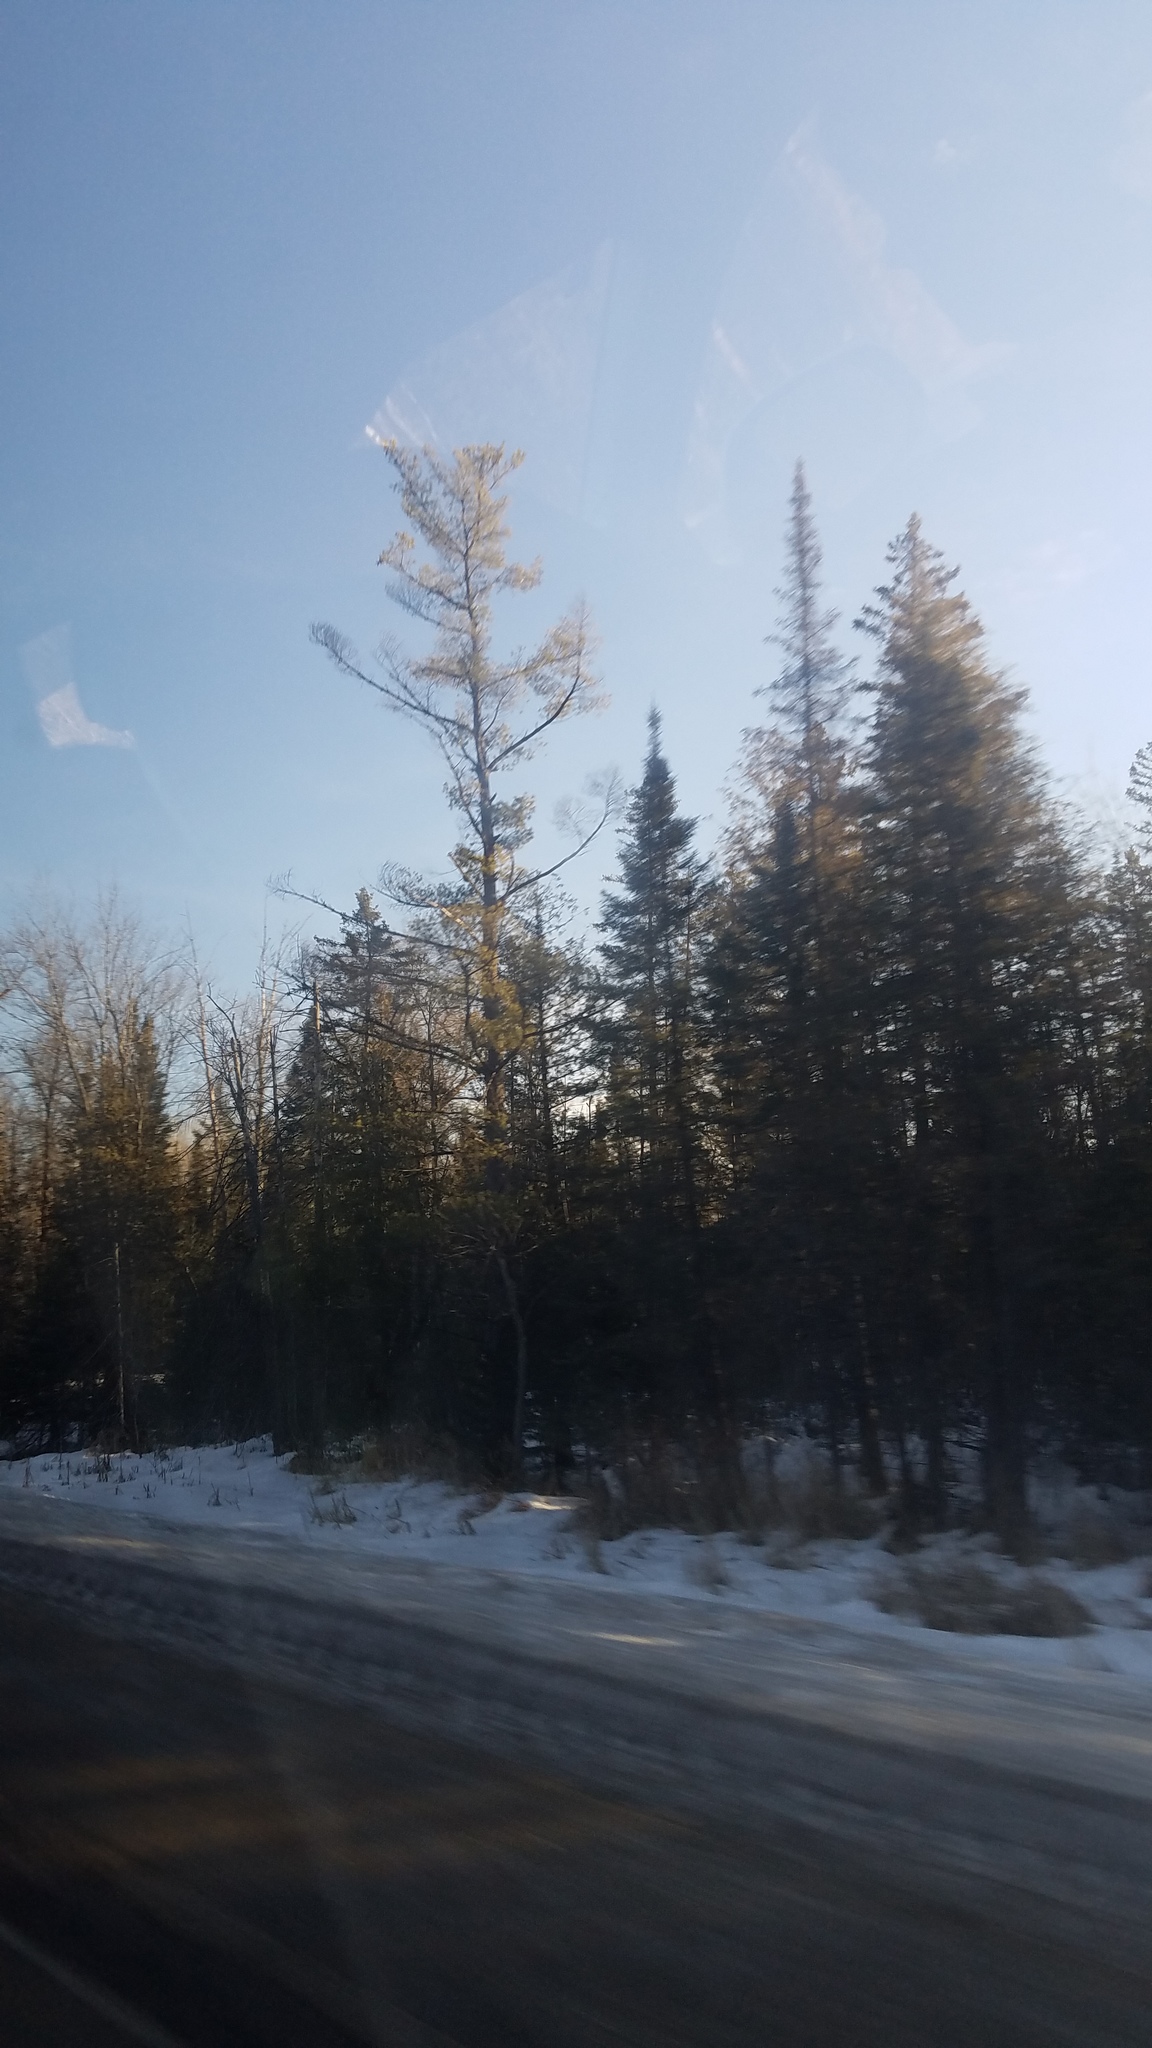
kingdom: Plantae
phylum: Tracheophyta
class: Pinopsida
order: Pinales
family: Pinaceae
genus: Pinus
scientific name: Pinus strobus
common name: Weymouth pine
